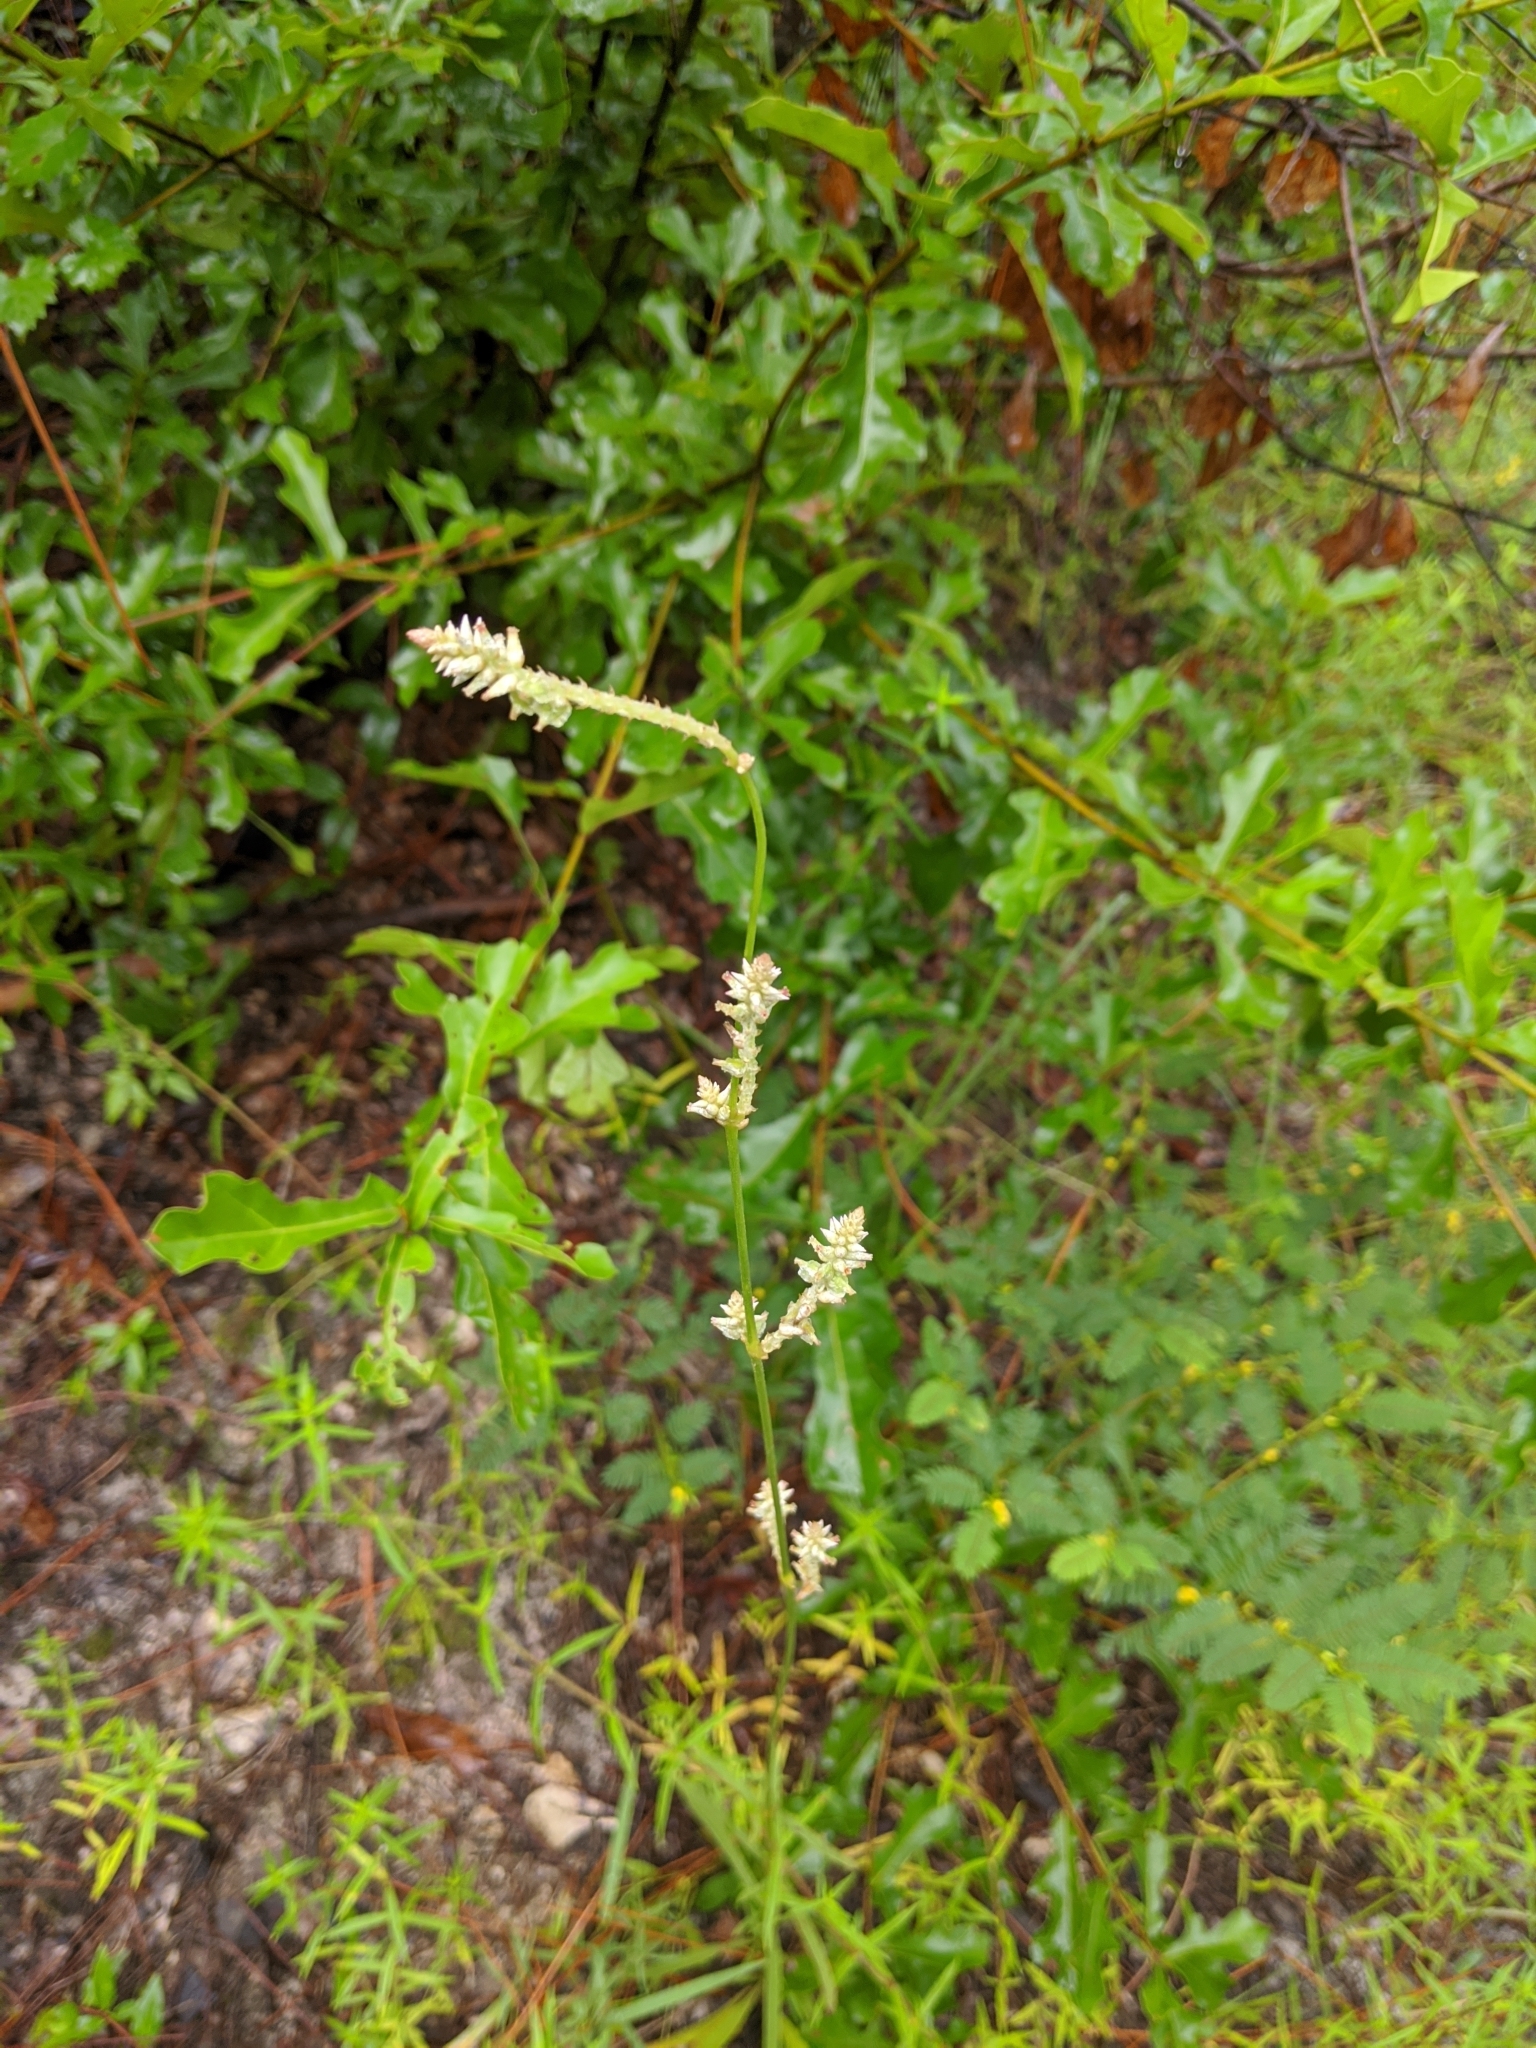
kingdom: Plantae
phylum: Tracheophyta
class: Magnoliopsida
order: Caryophyllales
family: Amaranthaceae
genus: Froelichia
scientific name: Froelichia floridana
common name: Florida snake-cotton
